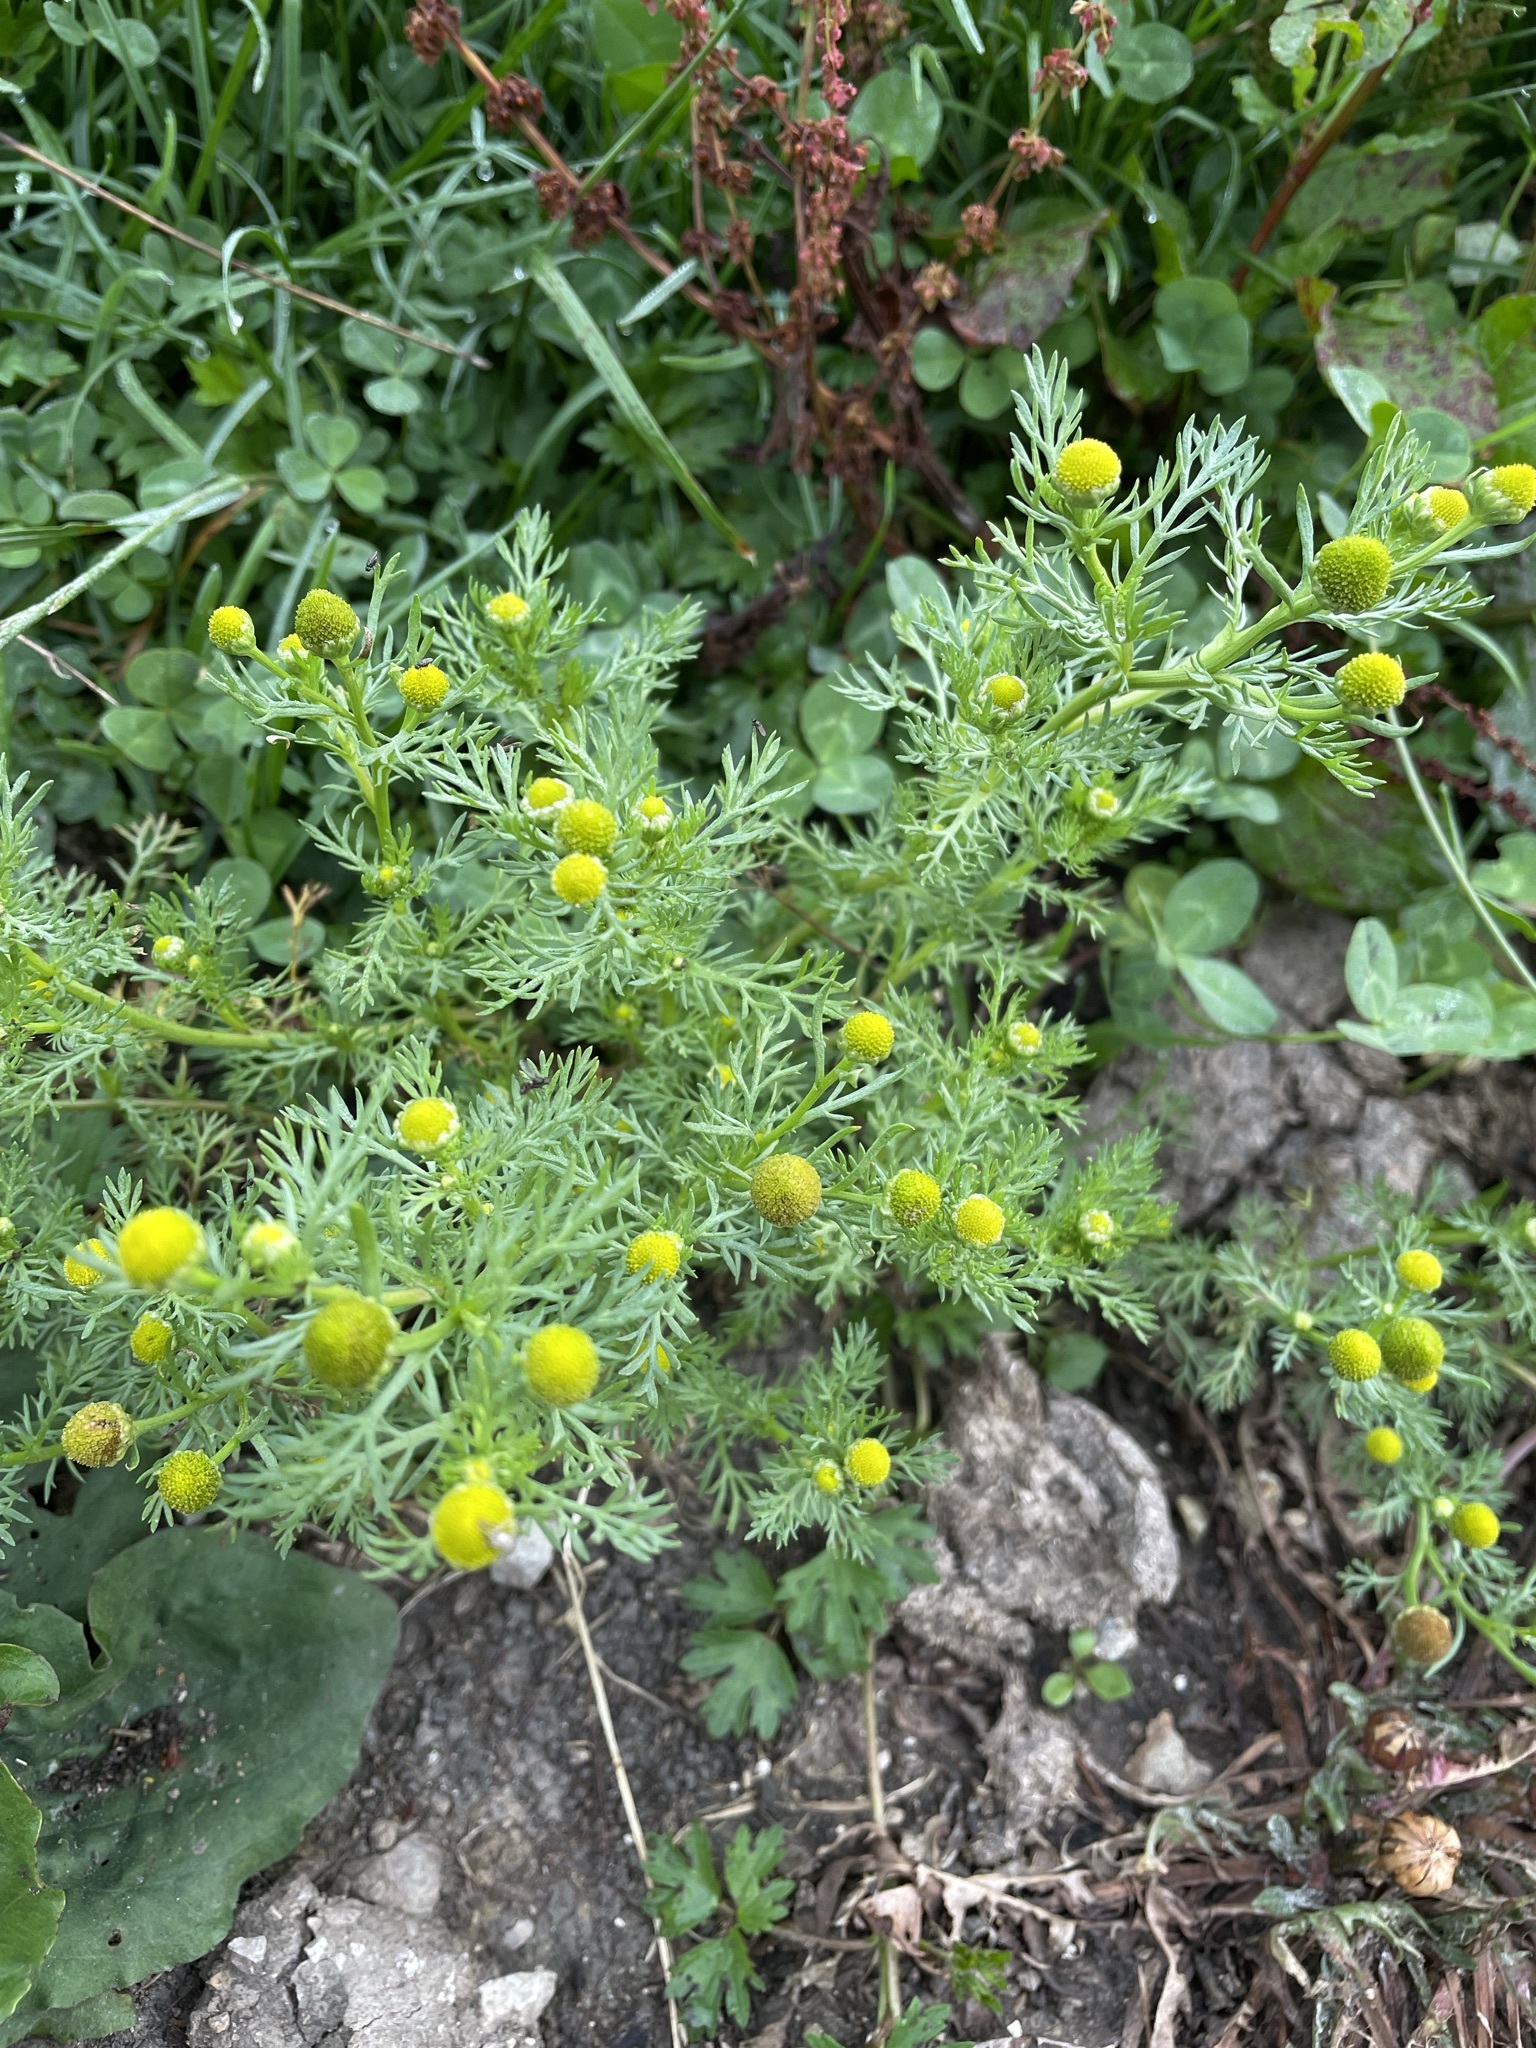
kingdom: Plantae
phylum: Tracheophyta
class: Magnoliopsida
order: Asterales
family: Asteraceae
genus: Matricaria
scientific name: Matricaria discoidea
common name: Disc mayweed
